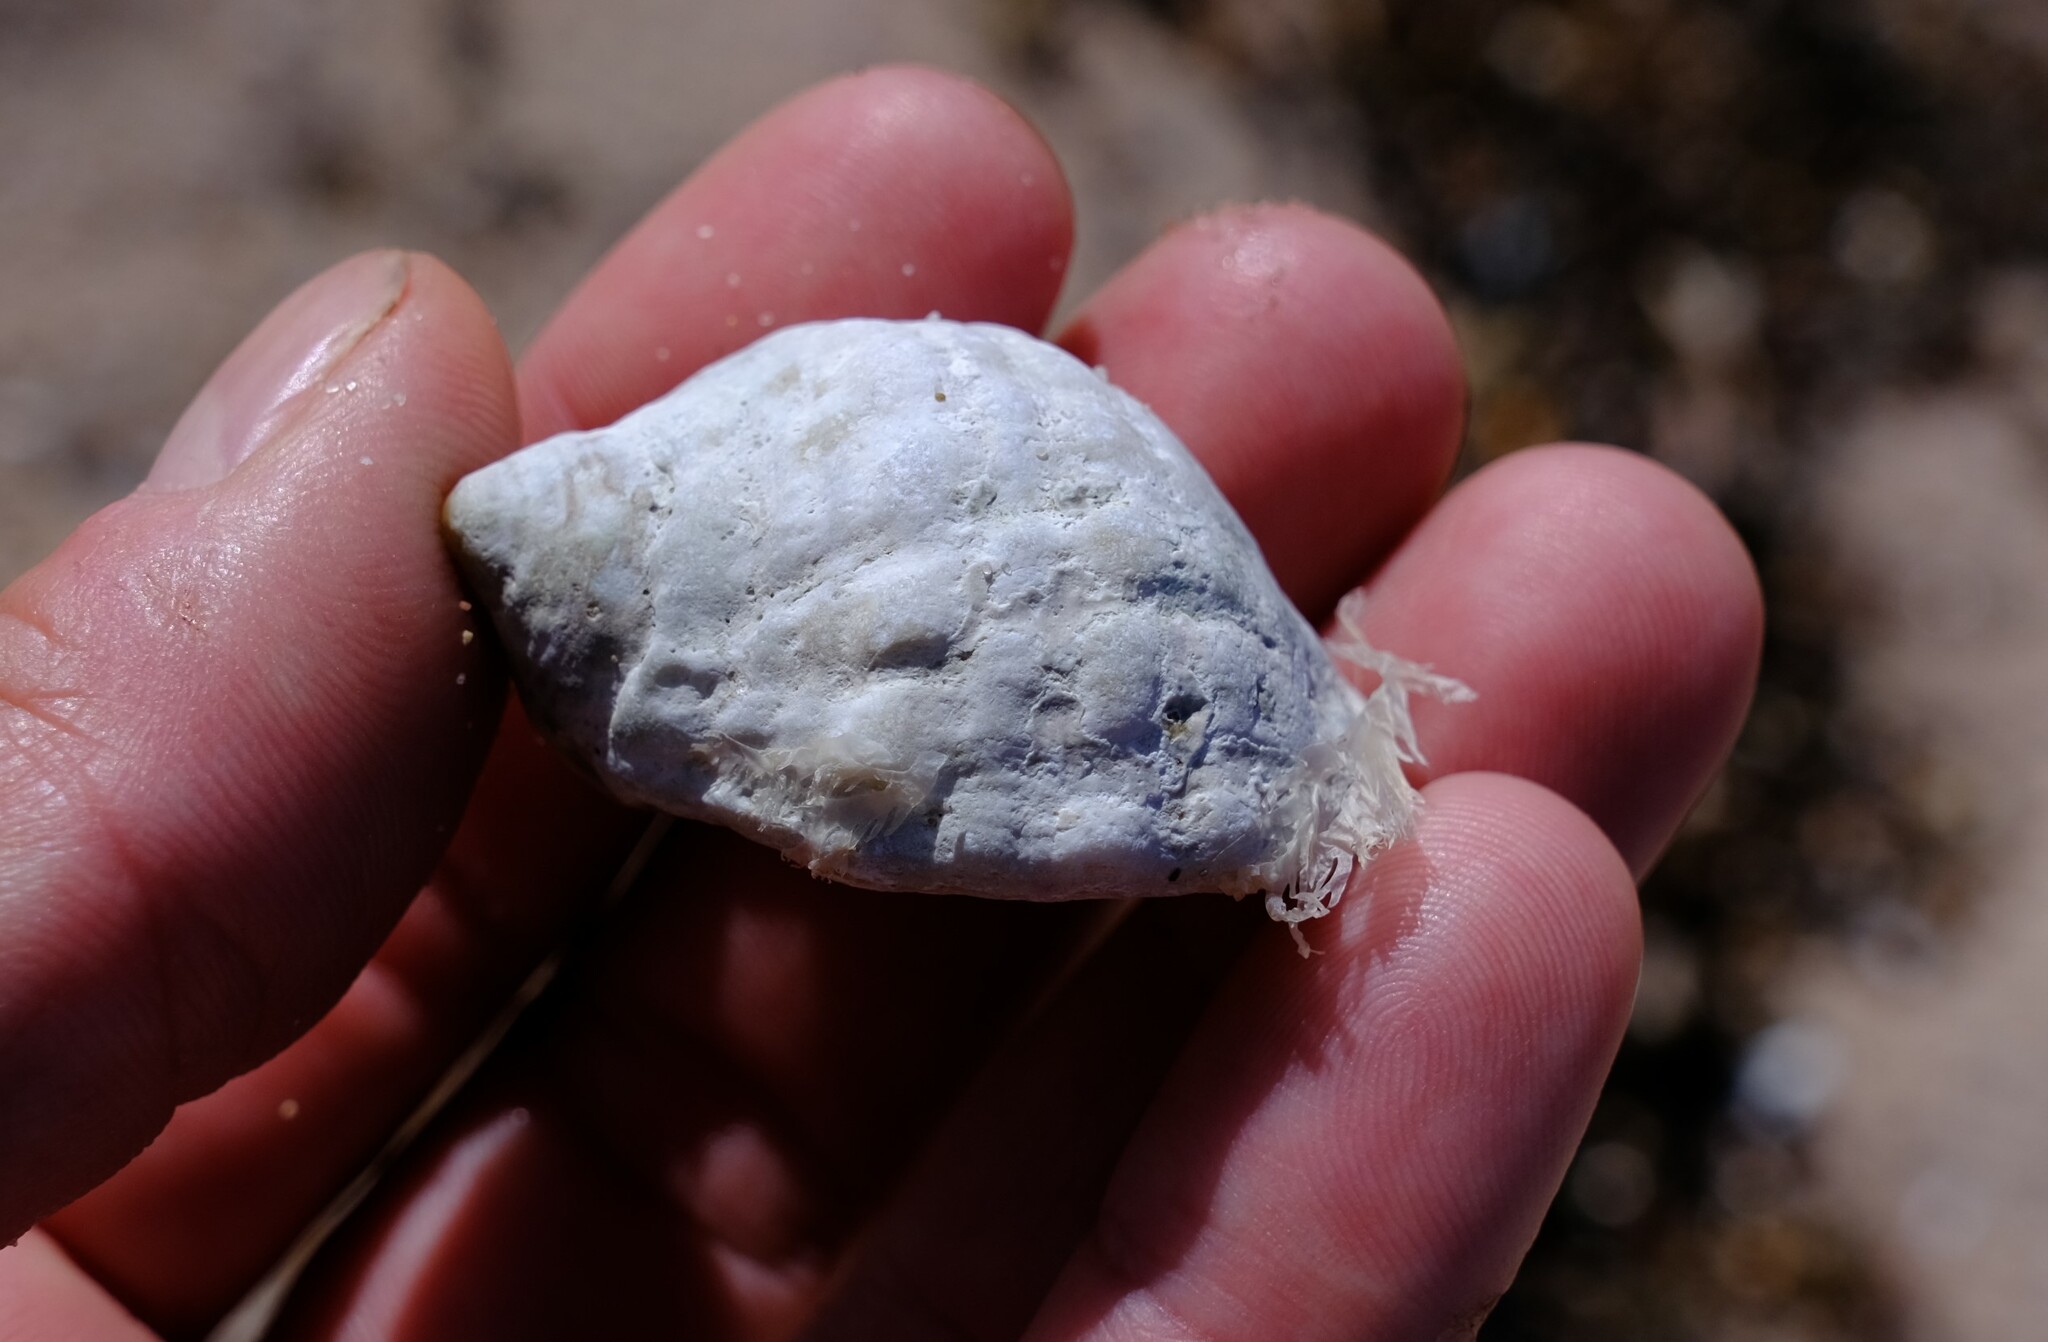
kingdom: Animalia
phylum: Mollusca
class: Gastropoda
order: Neogastropoda
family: Muricidae
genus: Dicathais
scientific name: Dicathais orbita
